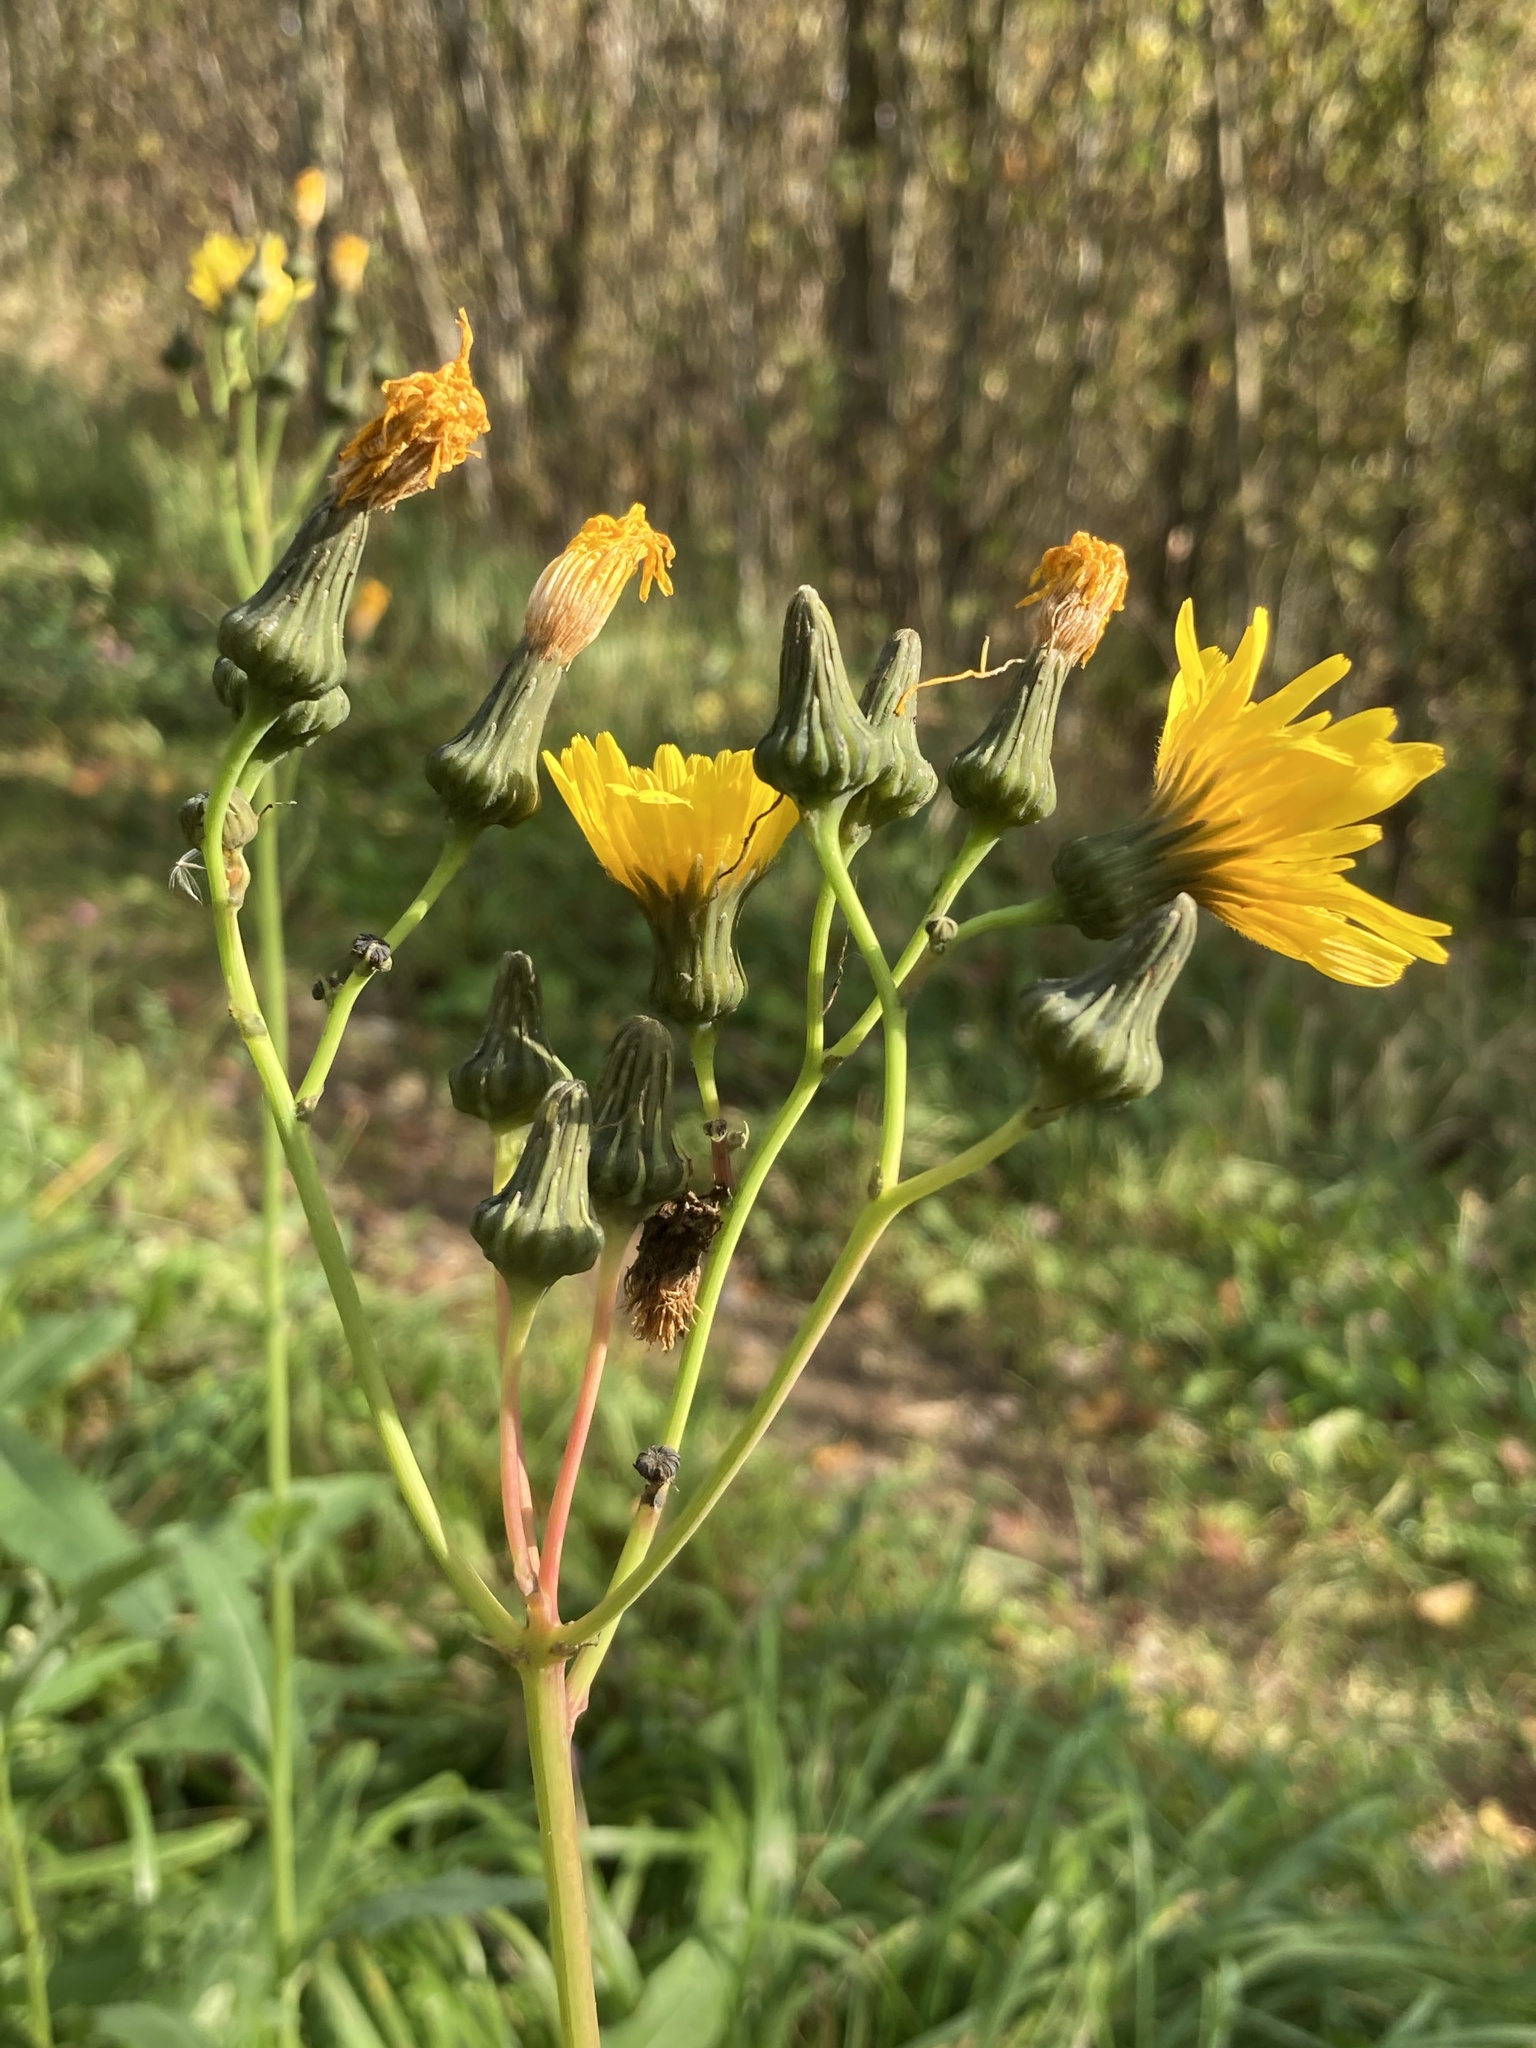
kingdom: Plantae
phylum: Tracheophyta
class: Magnoliopsida
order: Asterales
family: Asteraceae
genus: Sonchus
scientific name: Sonchus arvensis
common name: Perennial sow-thistle
